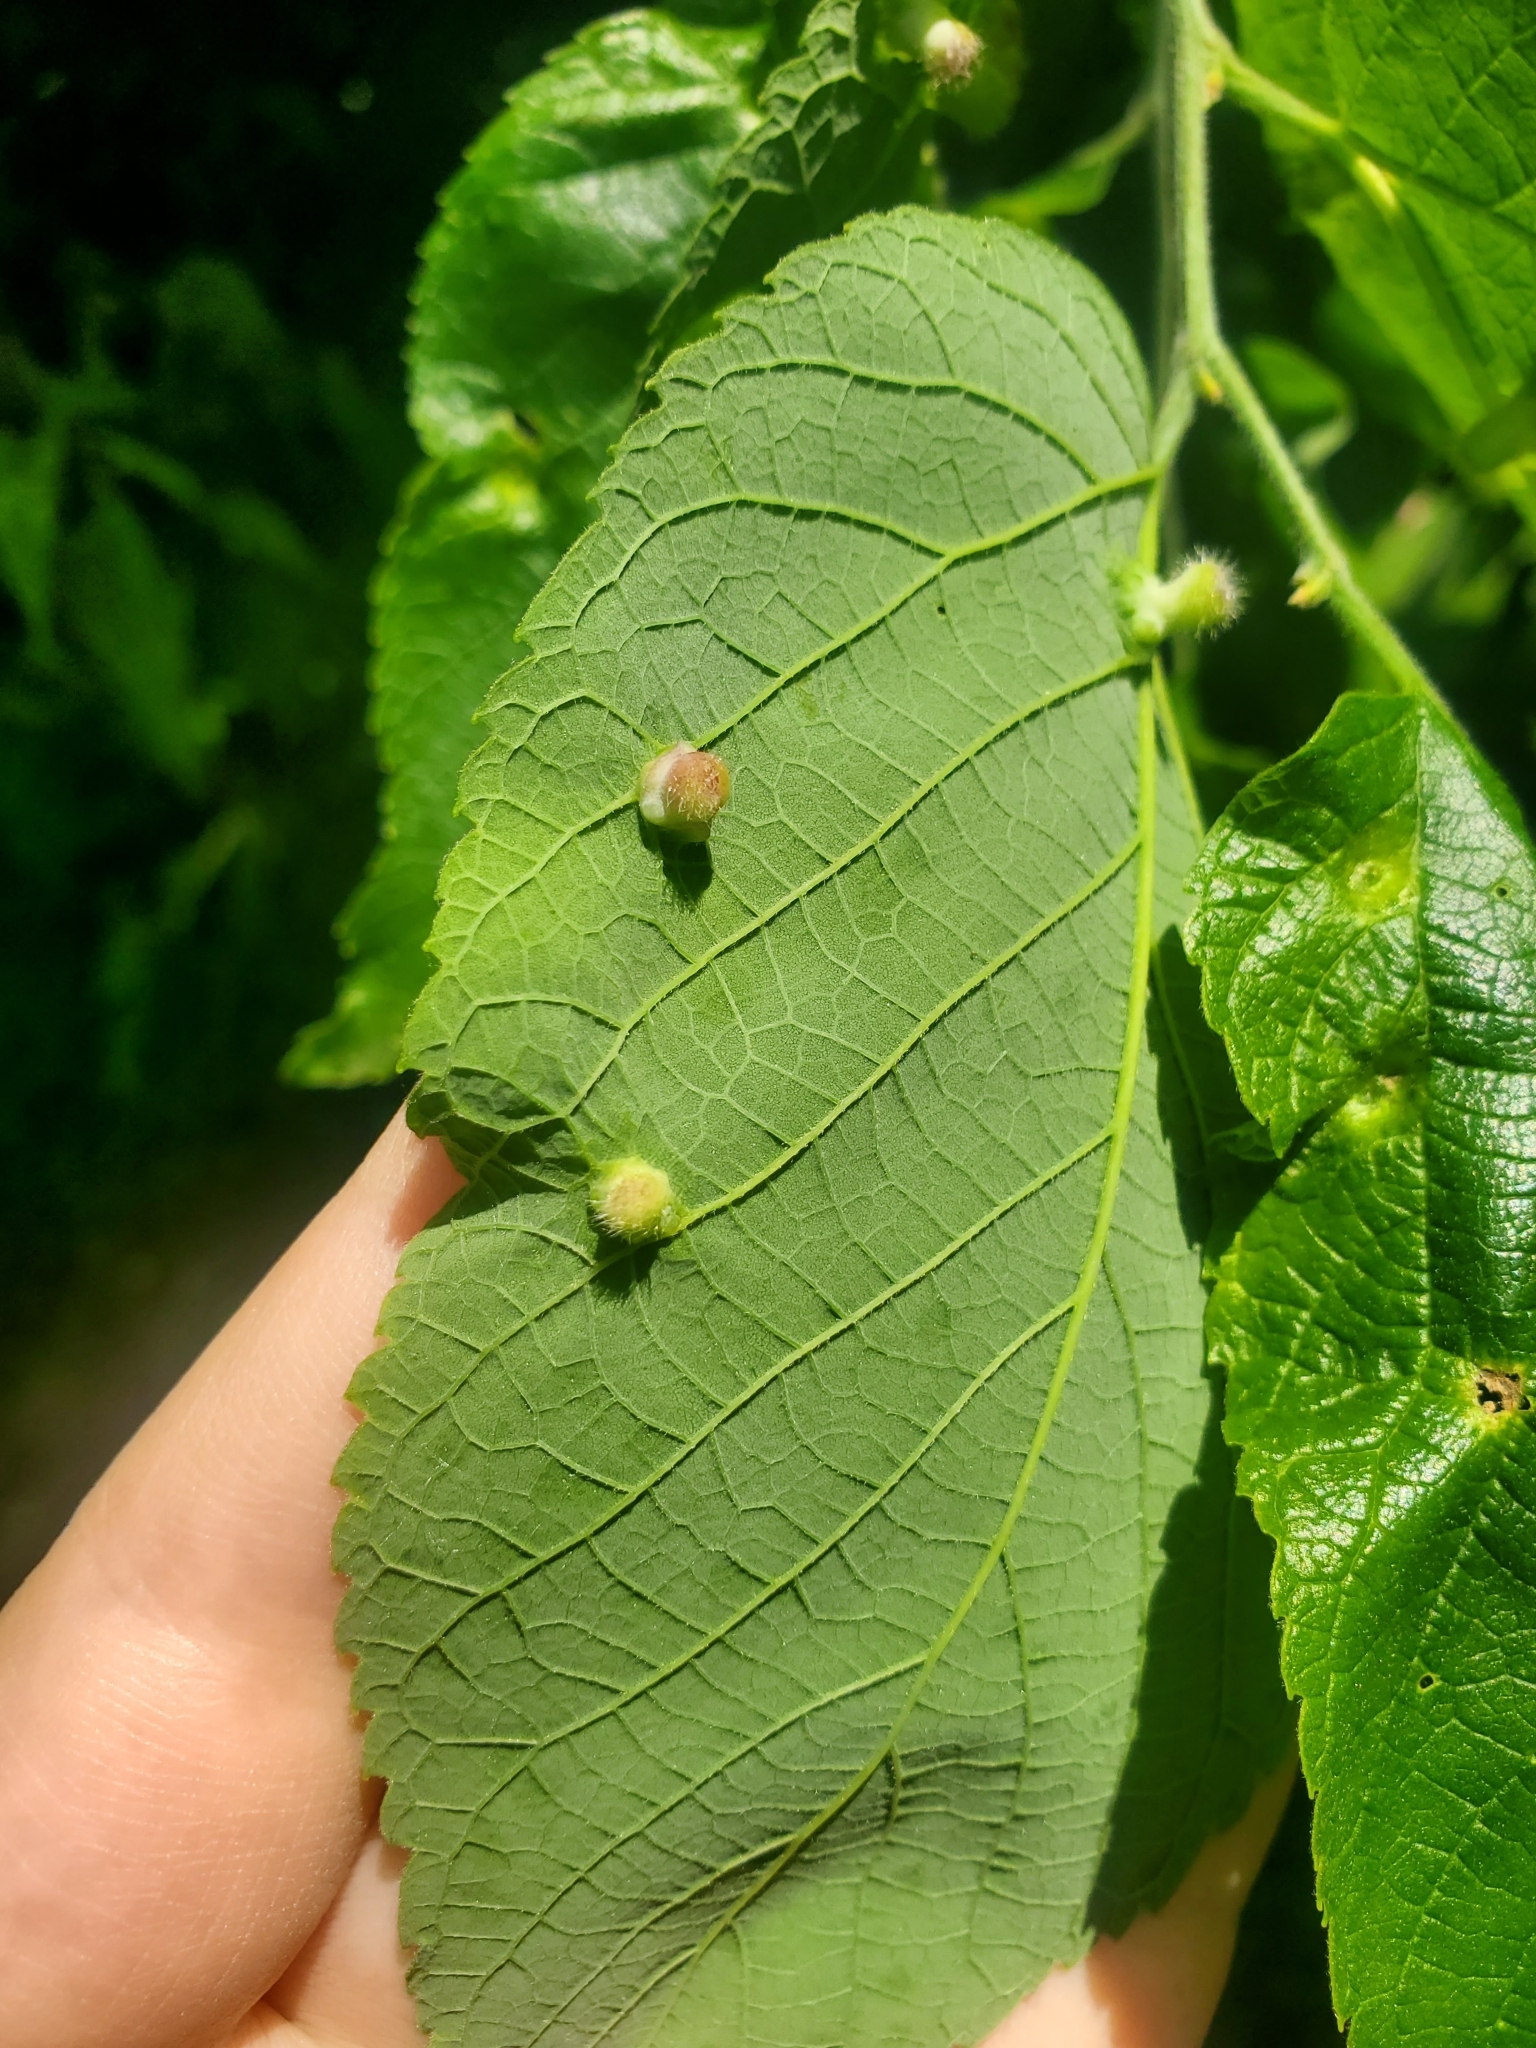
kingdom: Animalia
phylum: Arthropoda
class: Insecta
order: Hemiptera
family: Aphalaridae
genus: Pachypsylla
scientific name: Pachypsylla celtidismamma
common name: Hackberry nipplegall psyllid
